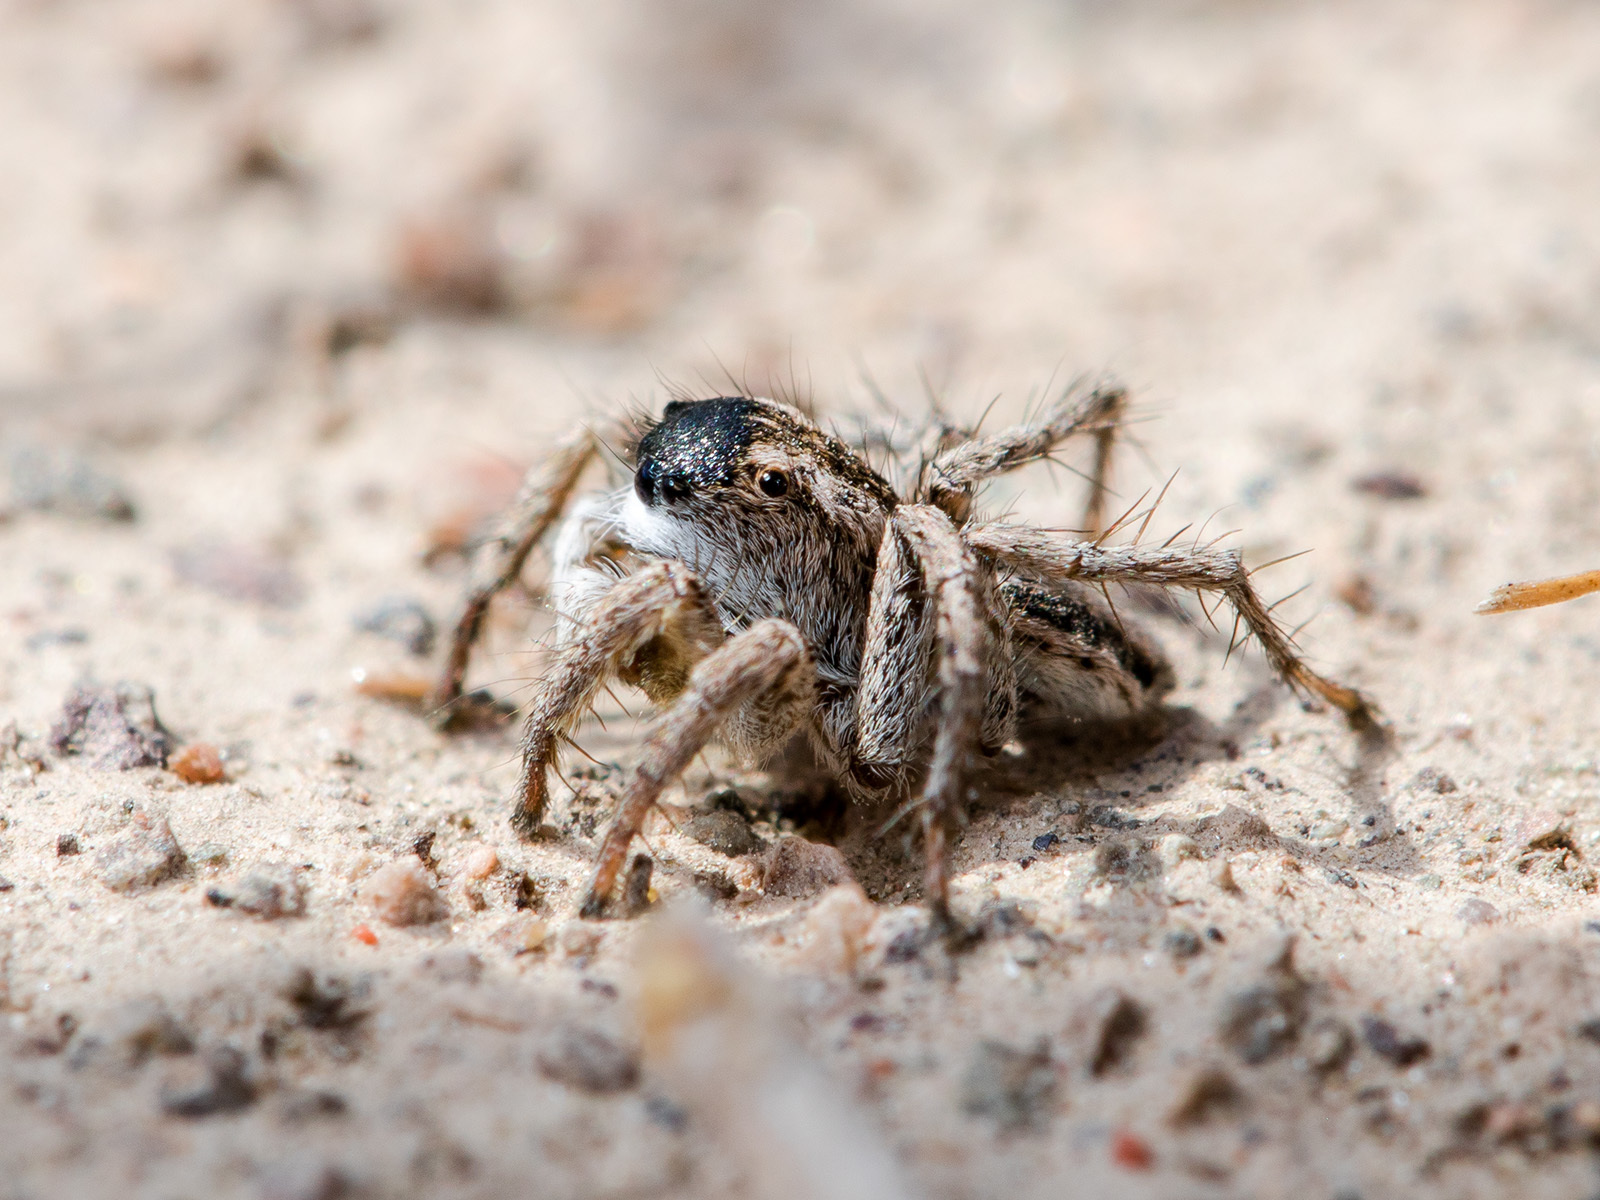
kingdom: Animalia
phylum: Arthropoda
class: Arachnida
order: Araneae
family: Salticidae
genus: Aelurillus
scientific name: Aelurillus m-nigrum
